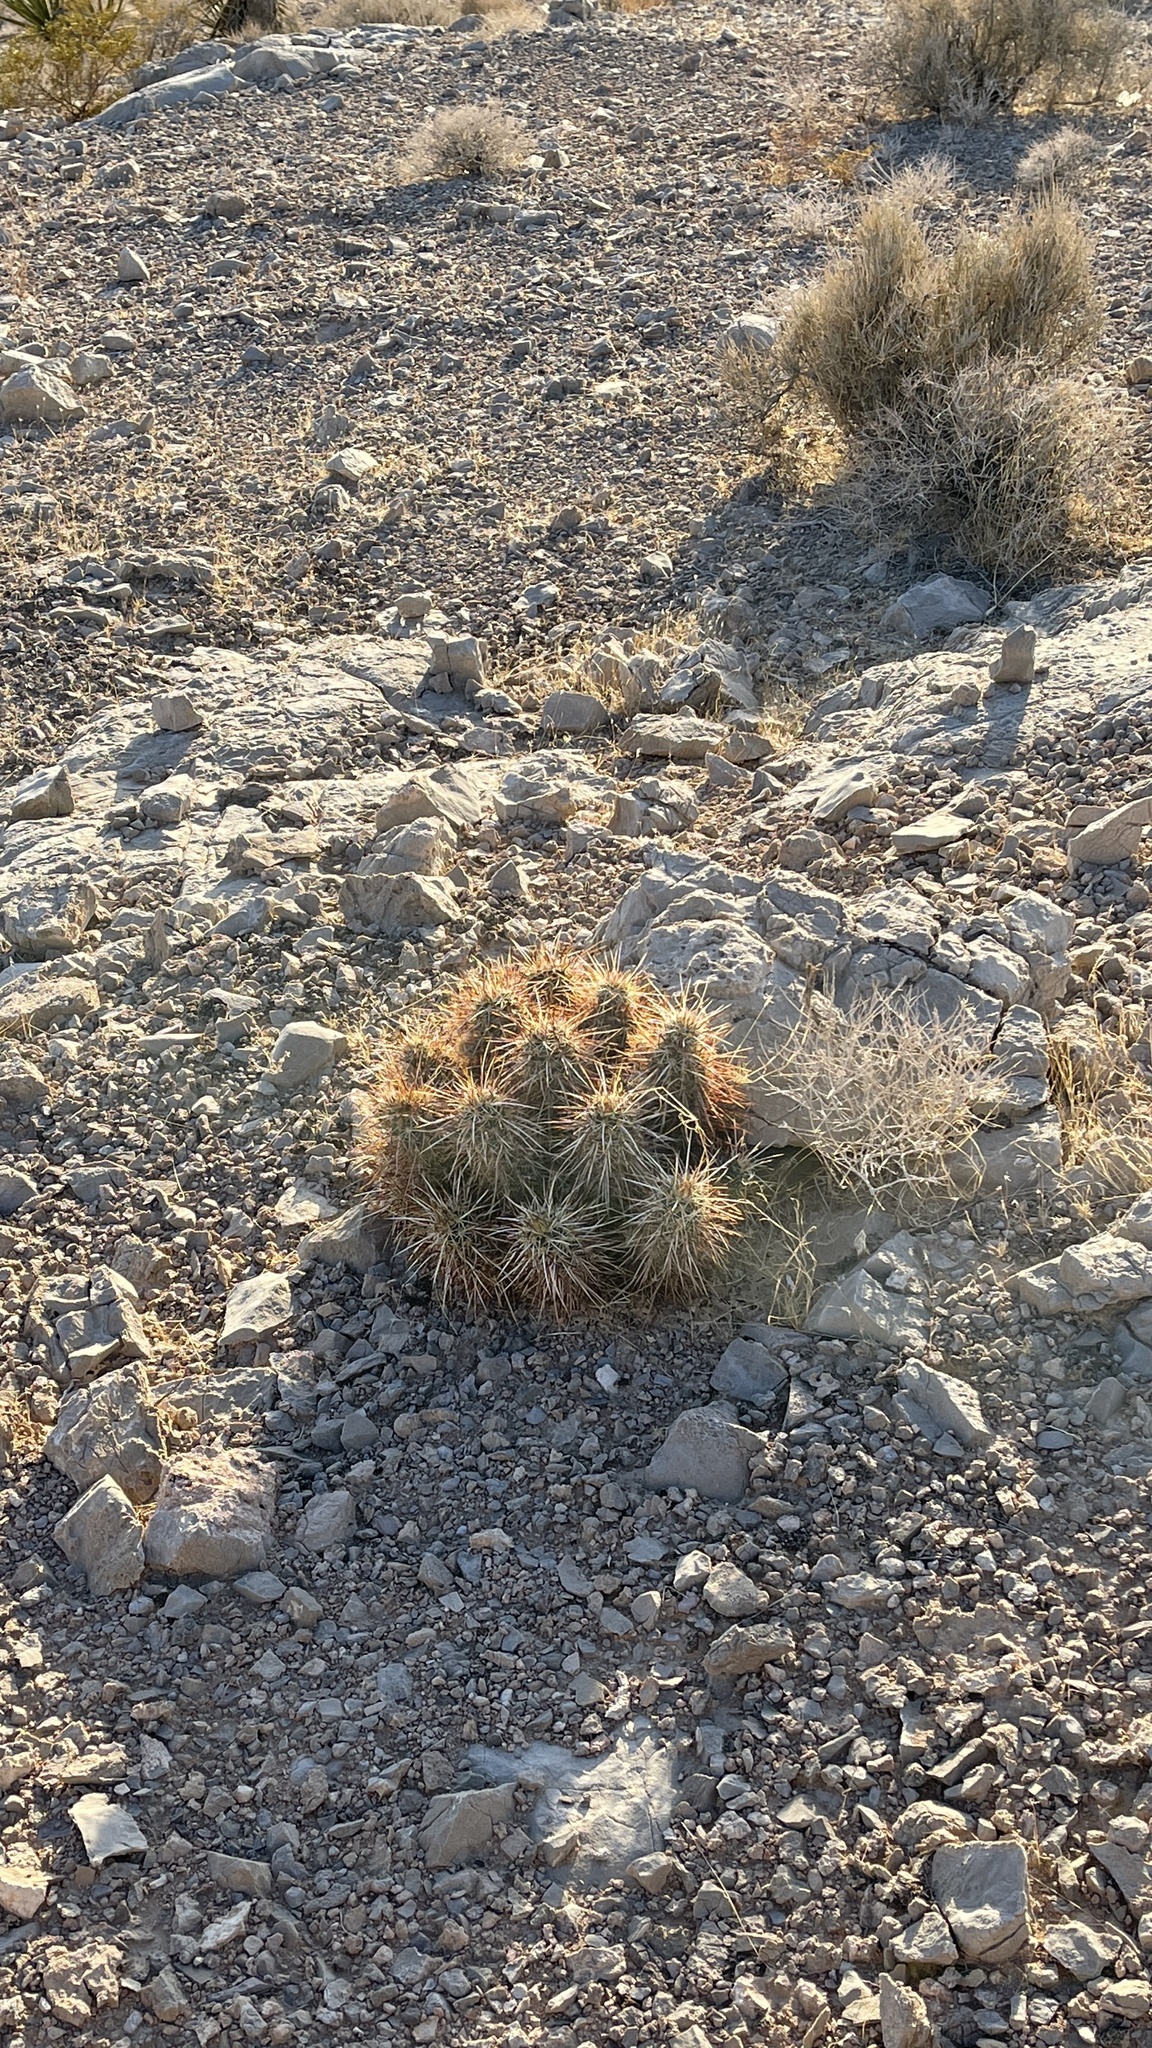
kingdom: Plantae
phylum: Tracheophyta
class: Magnoliopsida
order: Caryophyllales
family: Cactaceae
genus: Echinocereus
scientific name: Echinocereus engelmannii
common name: Engelmann's hedgehog cactus
